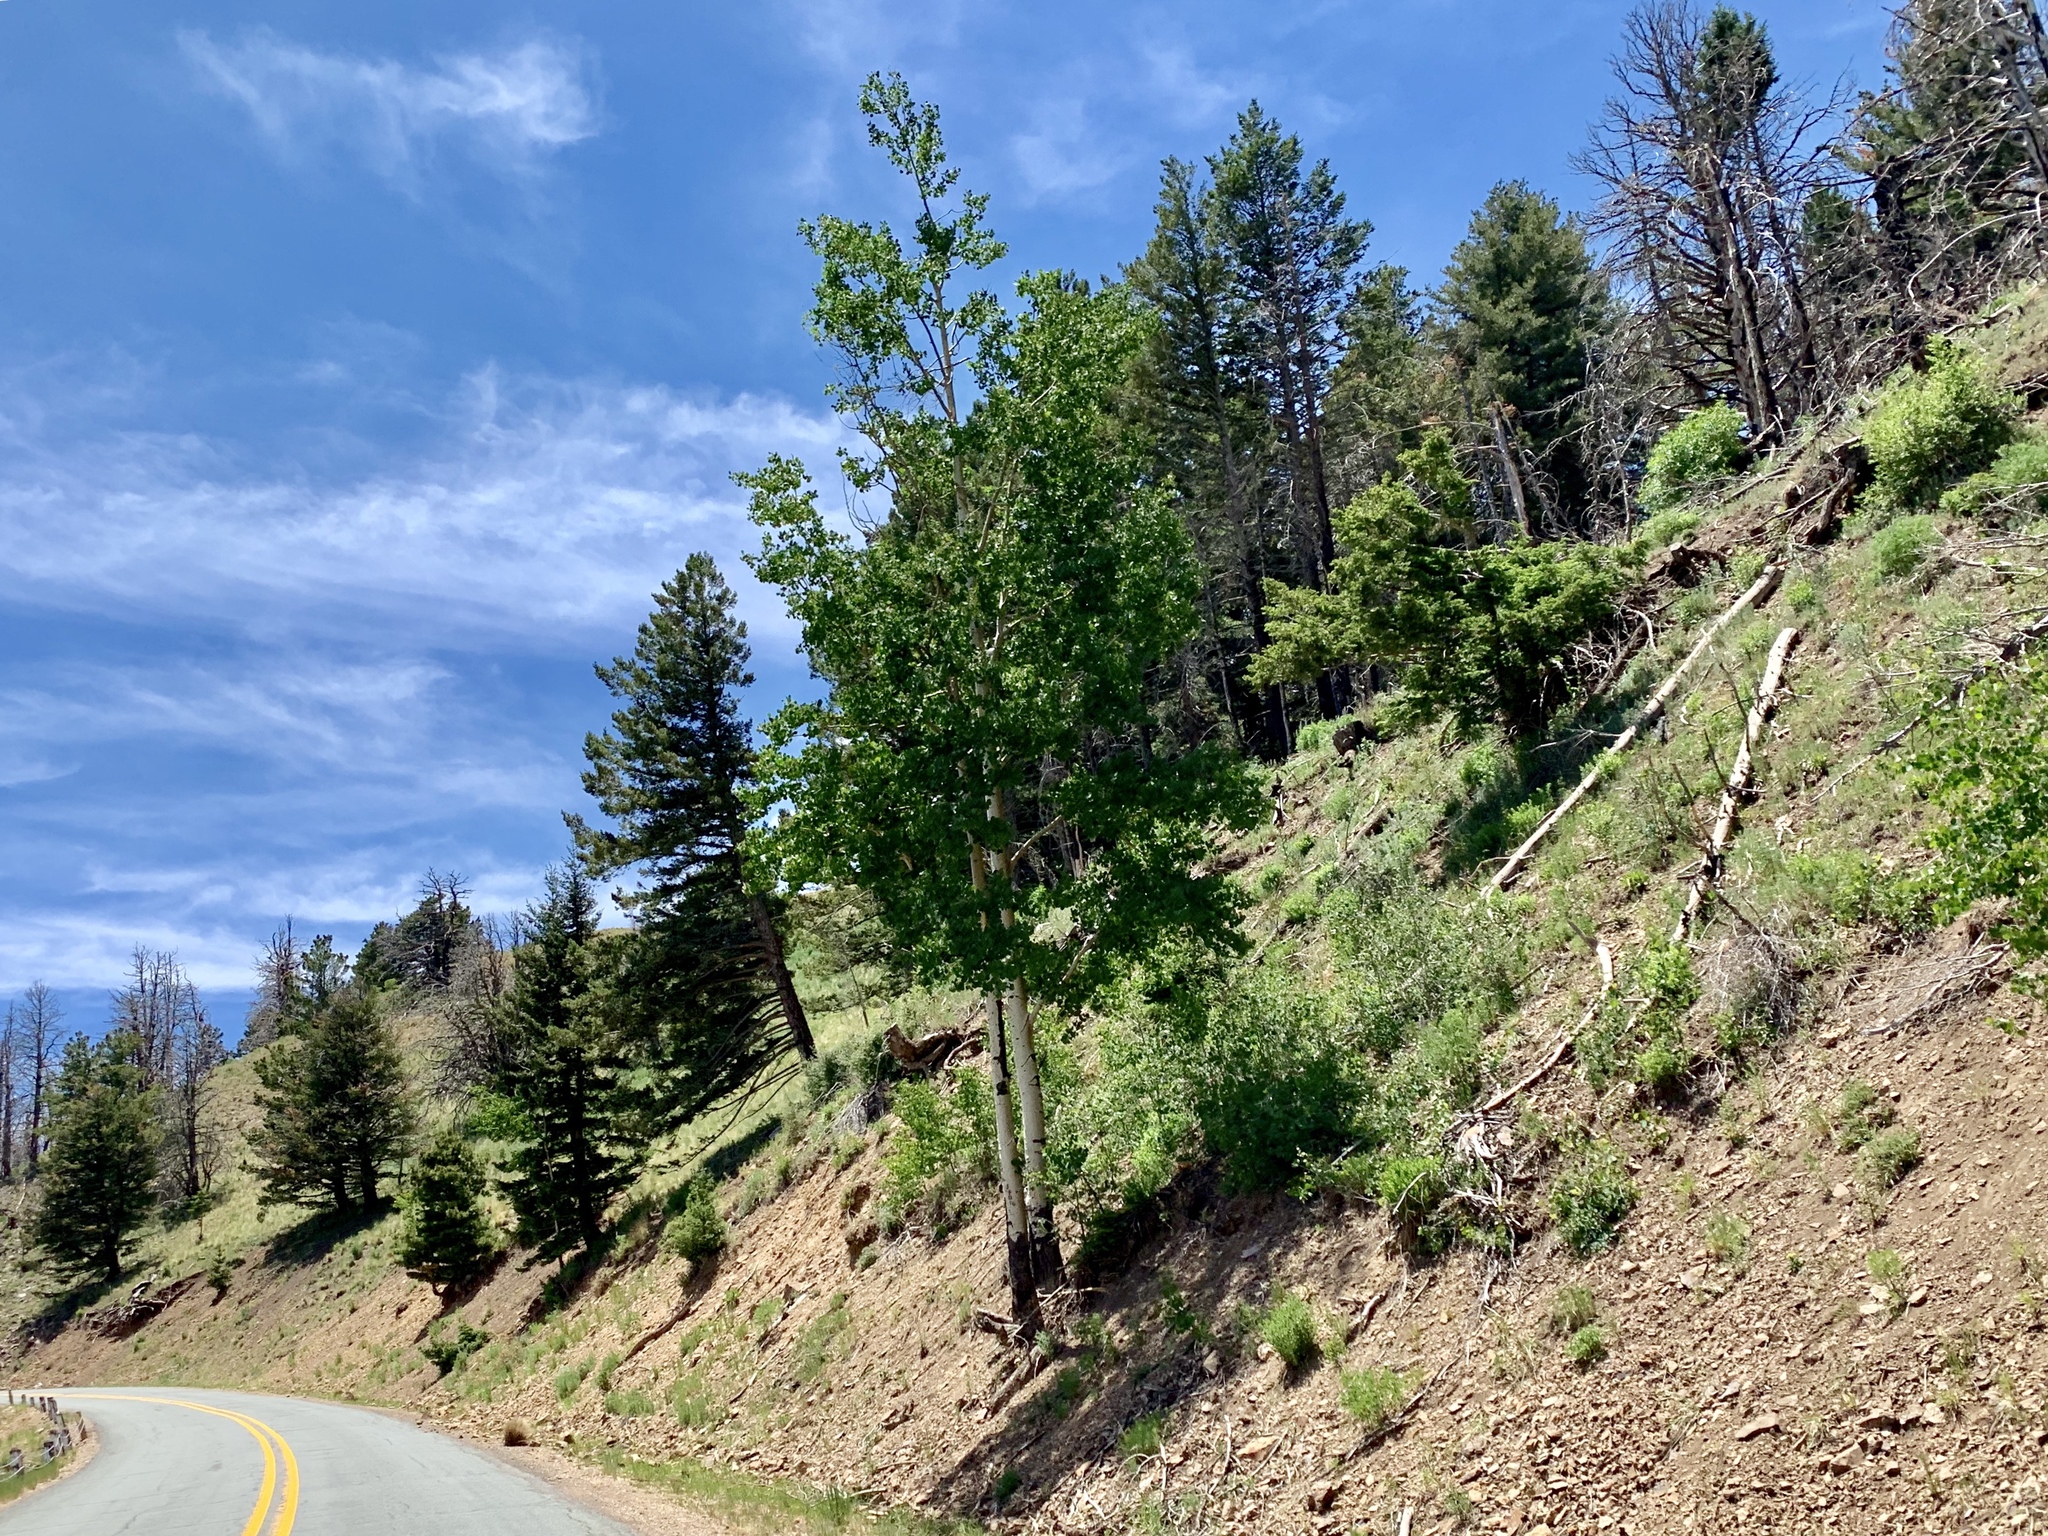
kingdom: Plantae
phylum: Tracheophyta
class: Magnoliopsida
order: Malpighiales
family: Salicaceae
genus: Populus
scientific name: Populus tremuloides
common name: Quaking aspen
